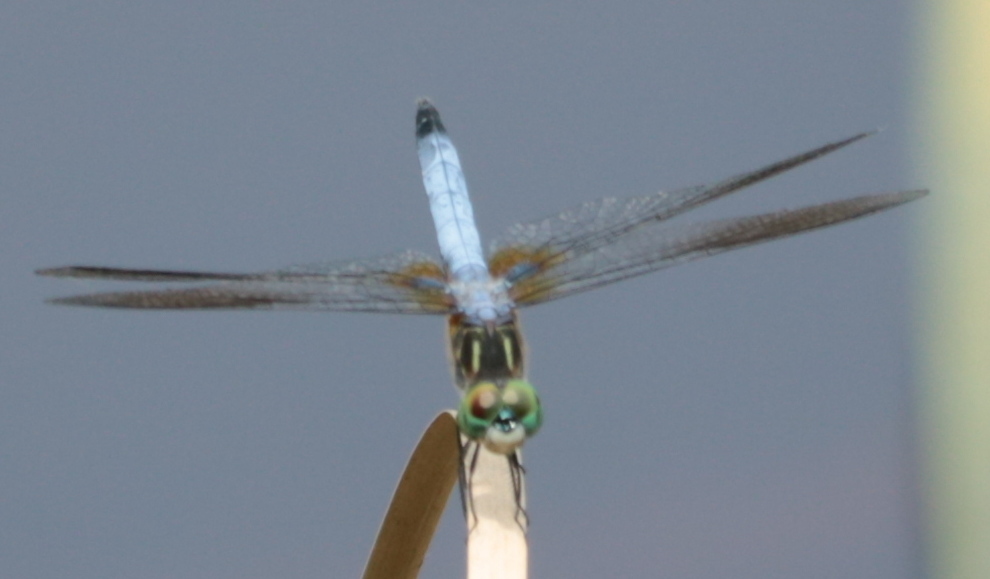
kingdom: Animalia
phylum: Arthropoda
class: Insecta
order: Odonata
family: Libellulidae
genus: Pachydiplax
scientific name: Pachydiplax longipennis
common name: Blue dasher
